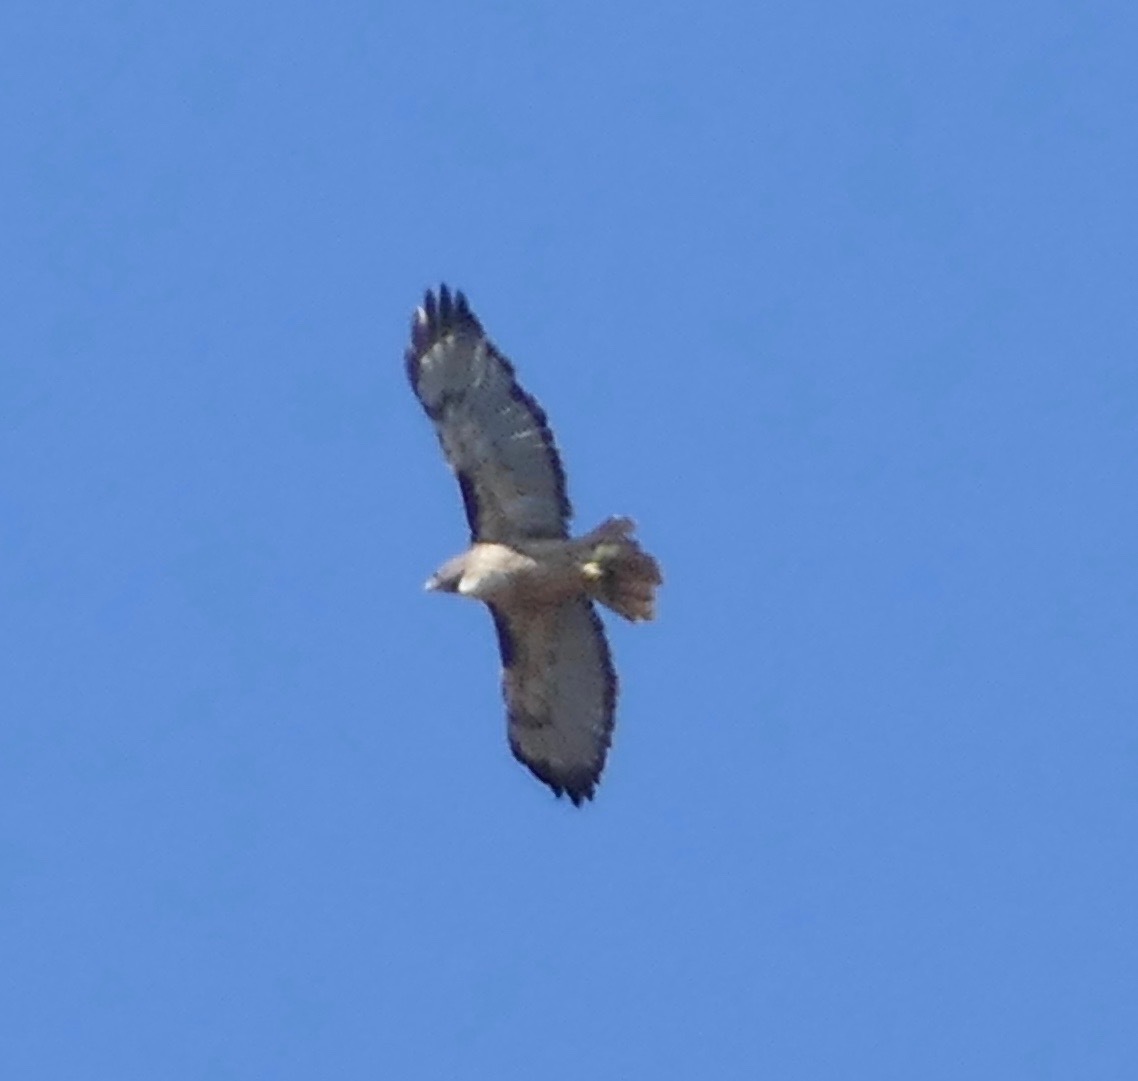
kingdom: Animalia
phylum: Chordata
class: Aves
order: Accipitriformes
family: Accipitridae
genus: Buteo
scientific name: Buteo jamaicensis
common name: Red-tailed hawk
